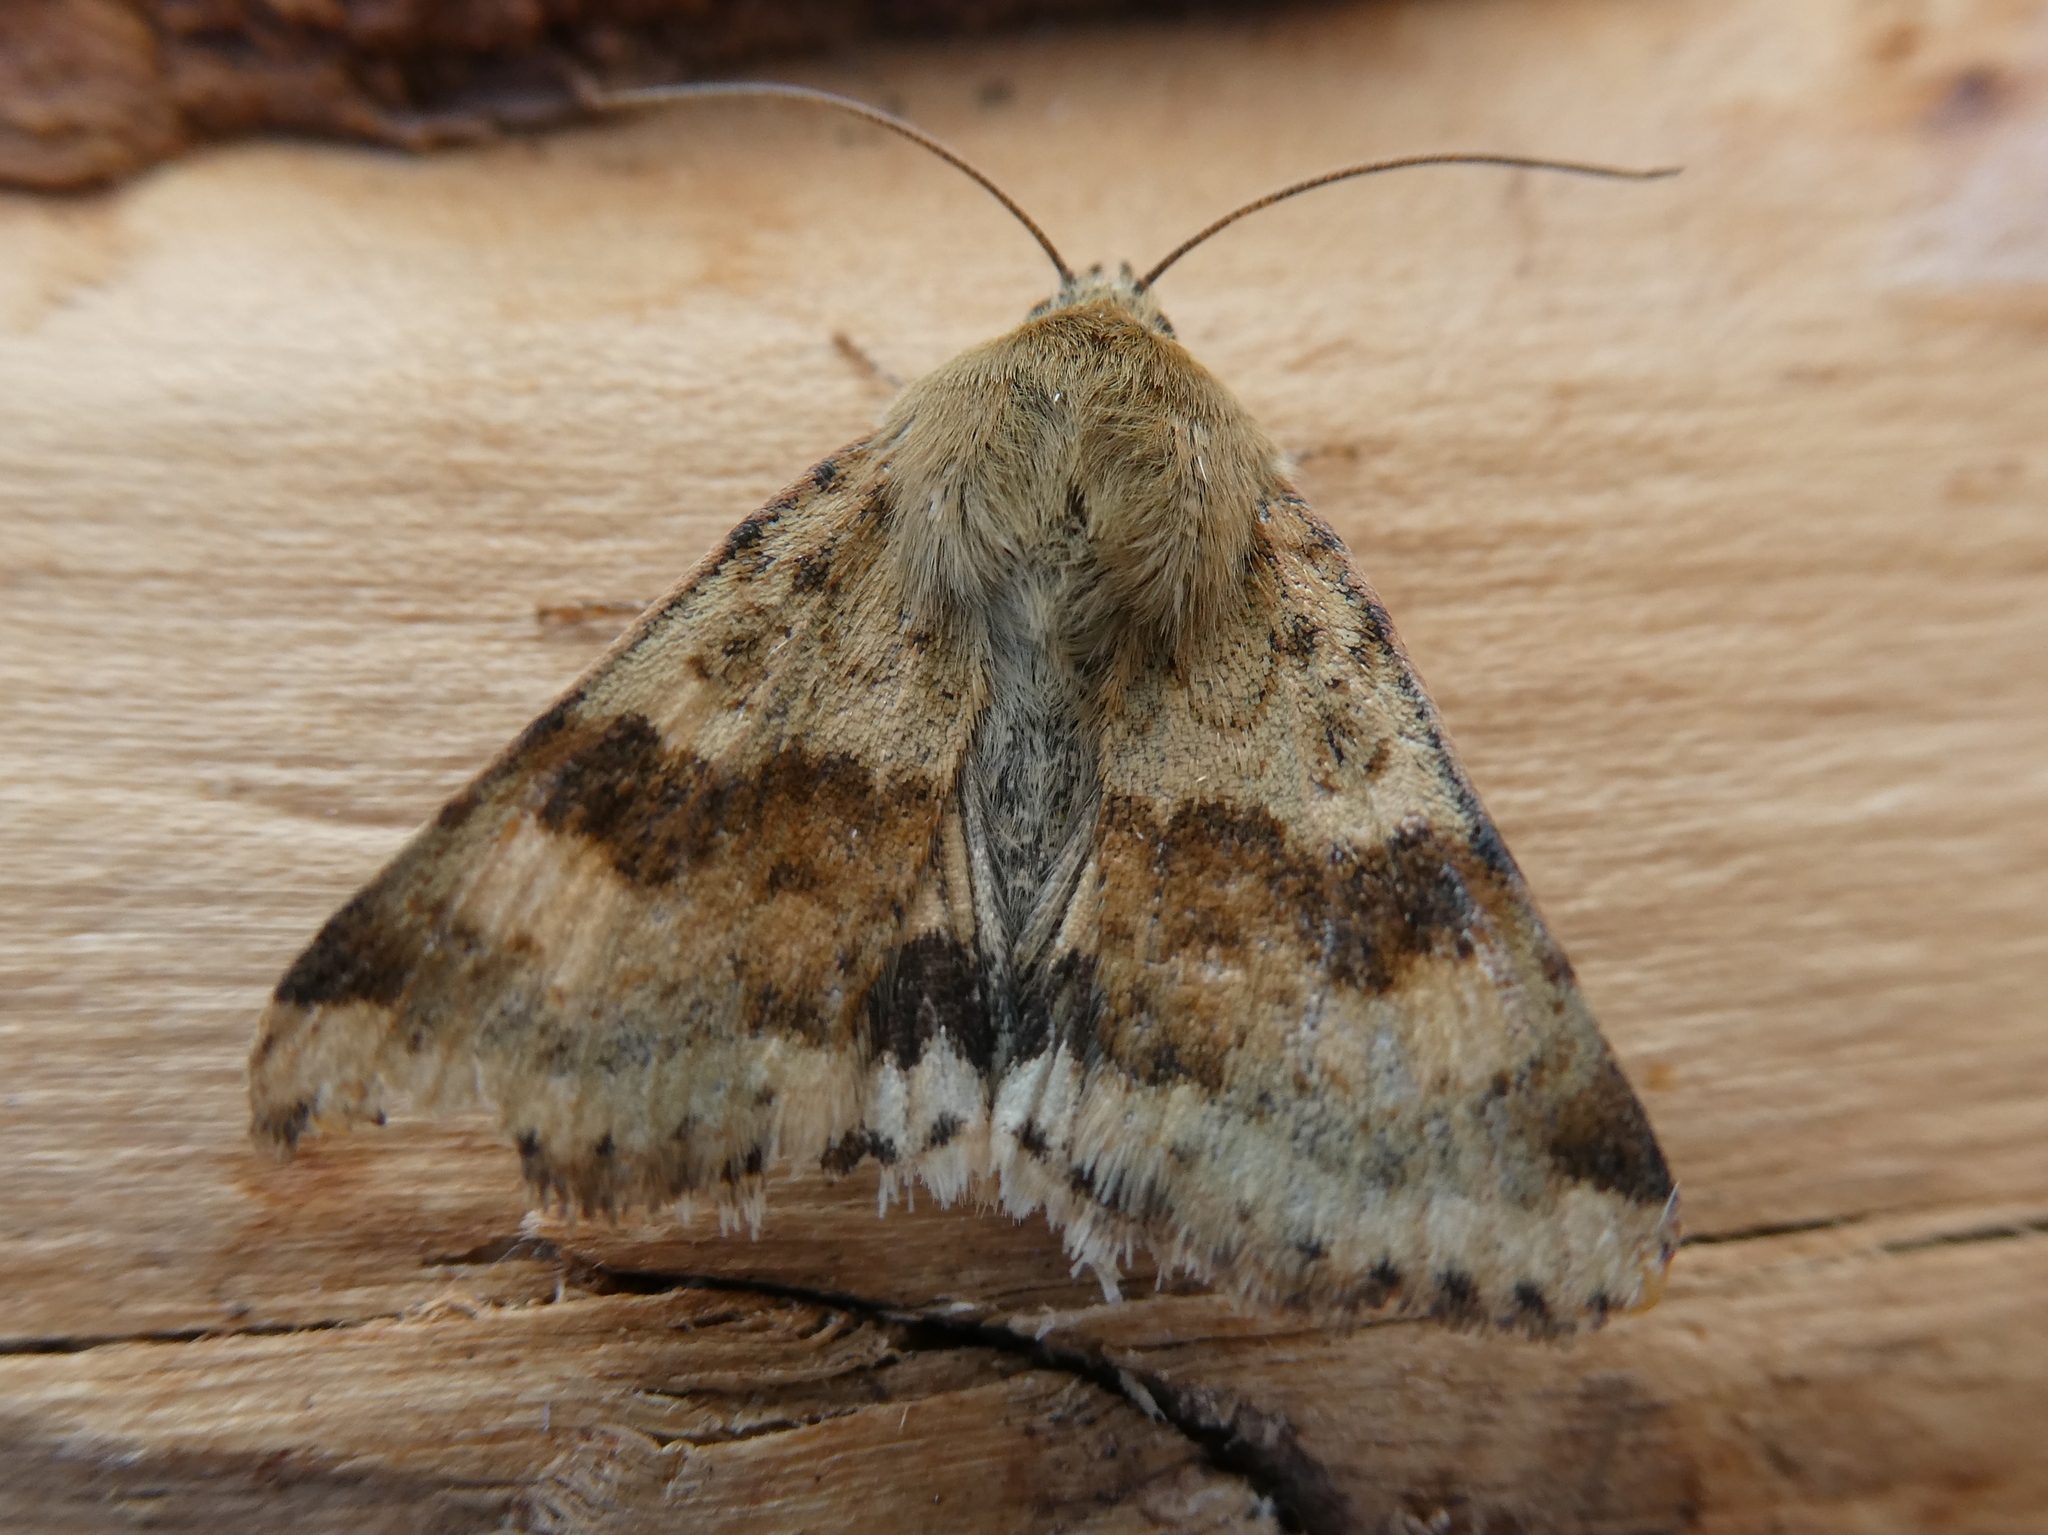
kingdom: Animalia
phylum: Arthropoda
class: Insecta
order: Lepidoptera
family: Noctuidae
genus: Heliothis
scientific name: Heliothis viriplaca
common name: Marbled clover
